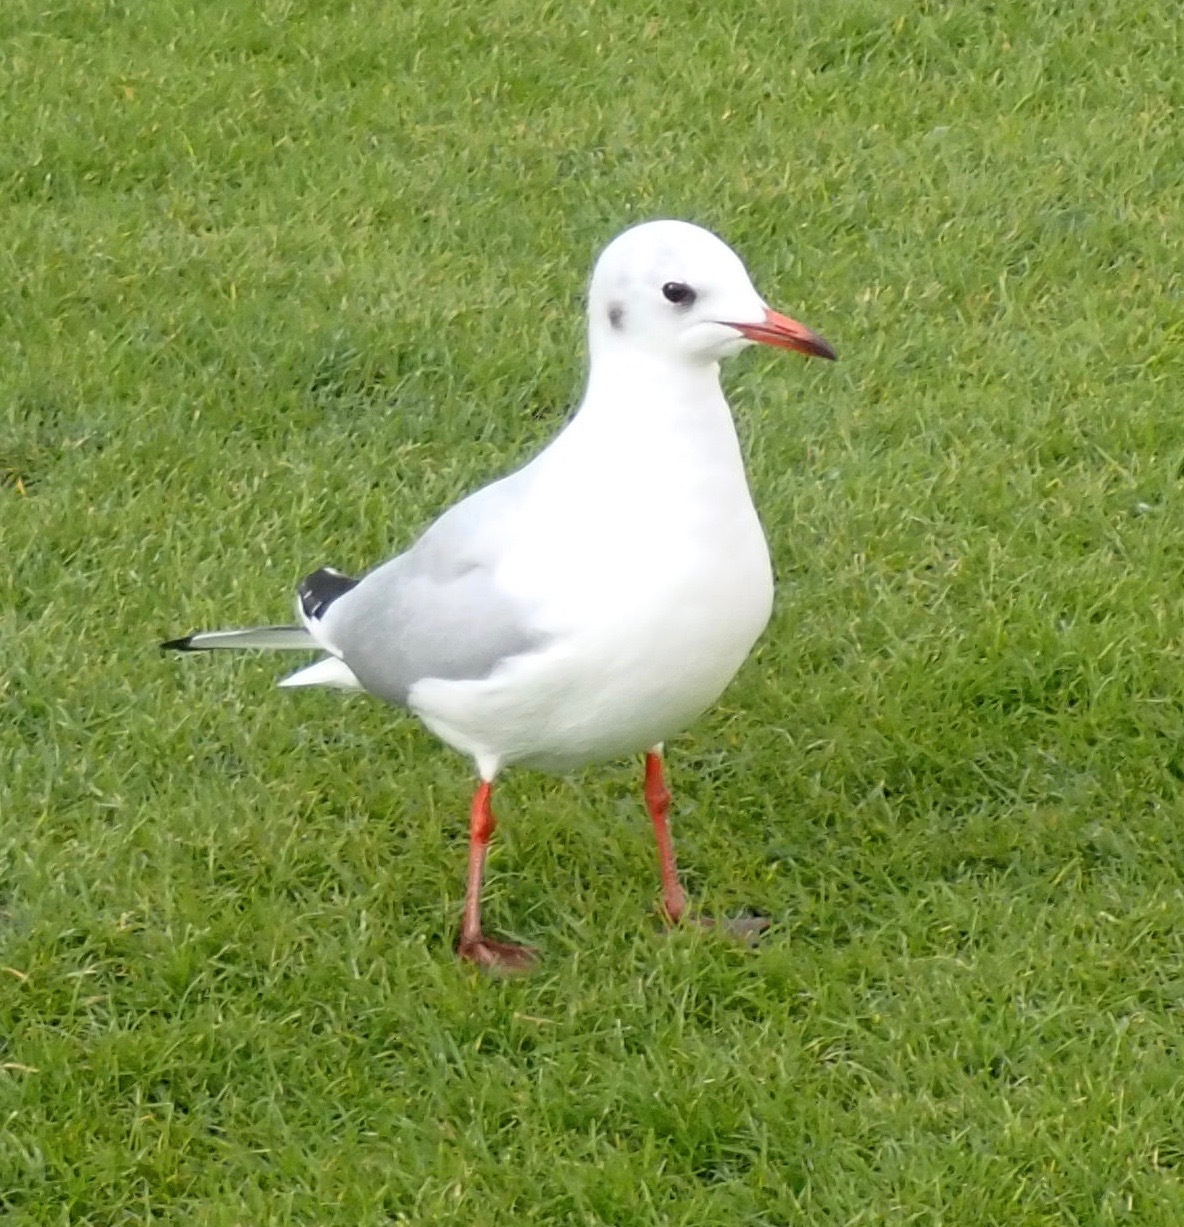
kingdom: Animalia
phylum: Chordata
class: Aves
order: Charadriiformes
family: Laridae
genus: Chroicocephalus
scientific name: Chroicocephalus ridibundus
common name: Black-headed gull
